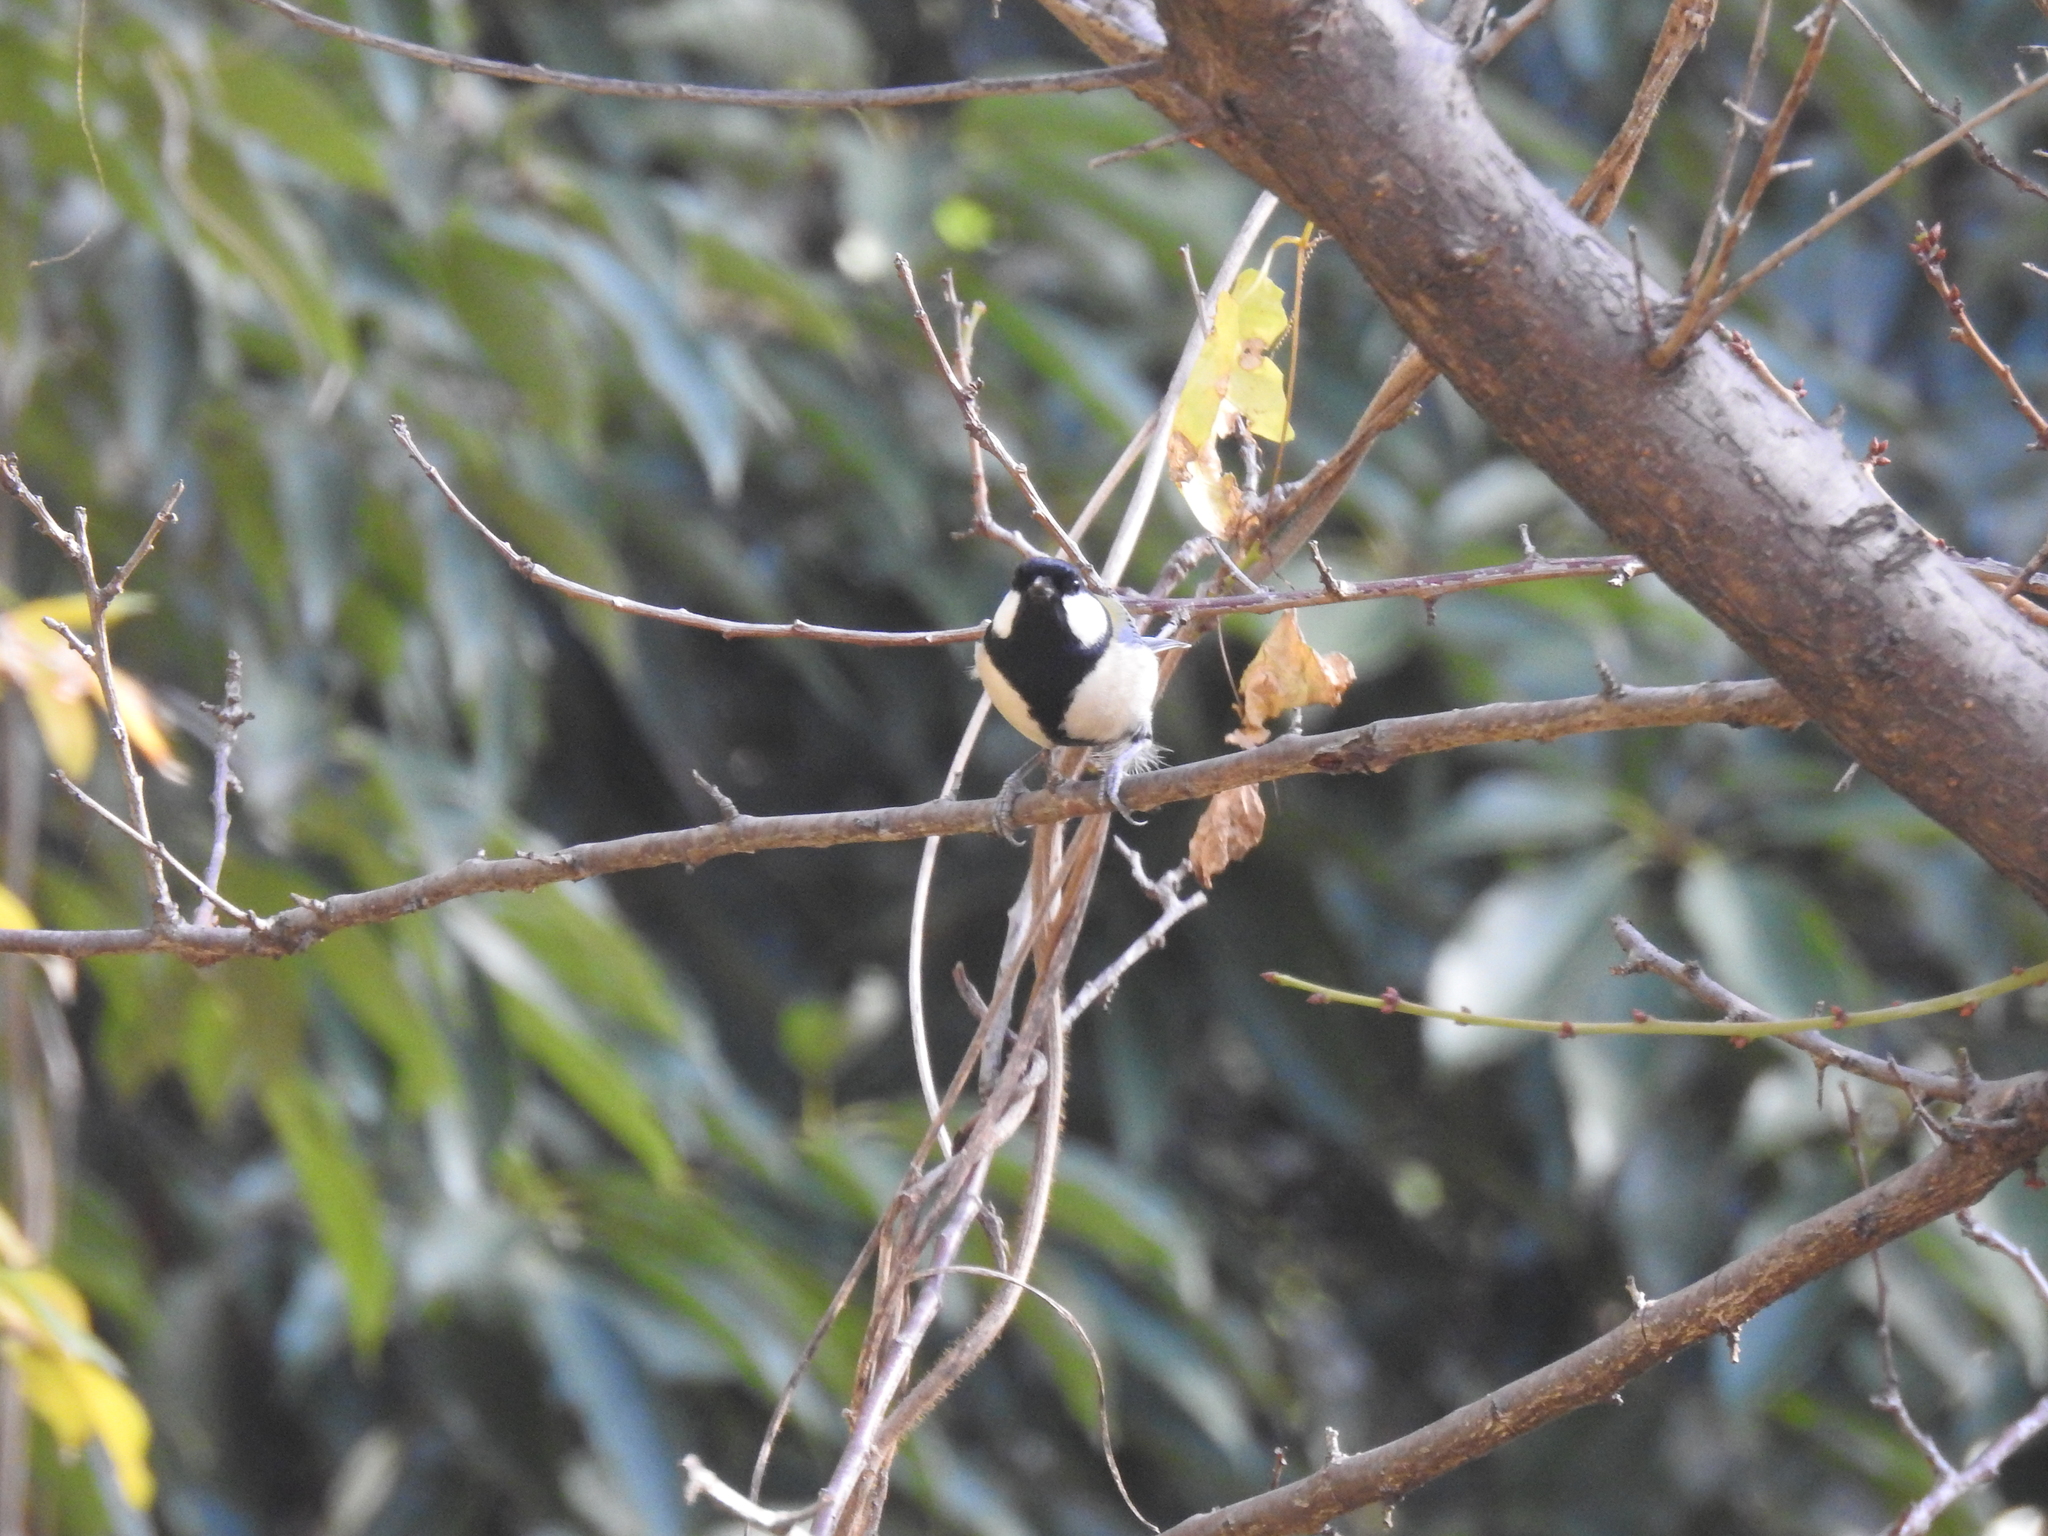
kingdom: Animalia
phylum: Chordata
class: Aves
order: Passeriformes
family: Paridae
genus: Parus
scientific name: Parus minor
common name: Japanese tit
